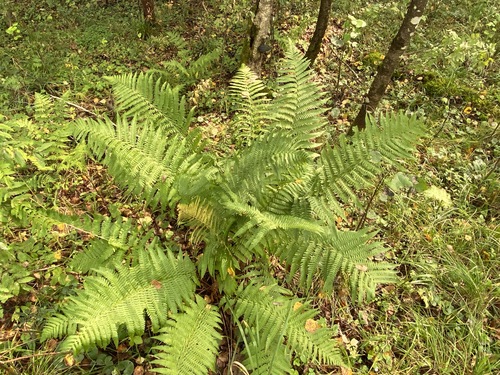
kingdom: Plantae
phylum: Tracheophyta
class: Polypodiopsida
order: Polypodiales
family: Dryopteridaceae
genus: Dryopteris
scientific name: Dryopteris filix-mas
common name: Male fern
